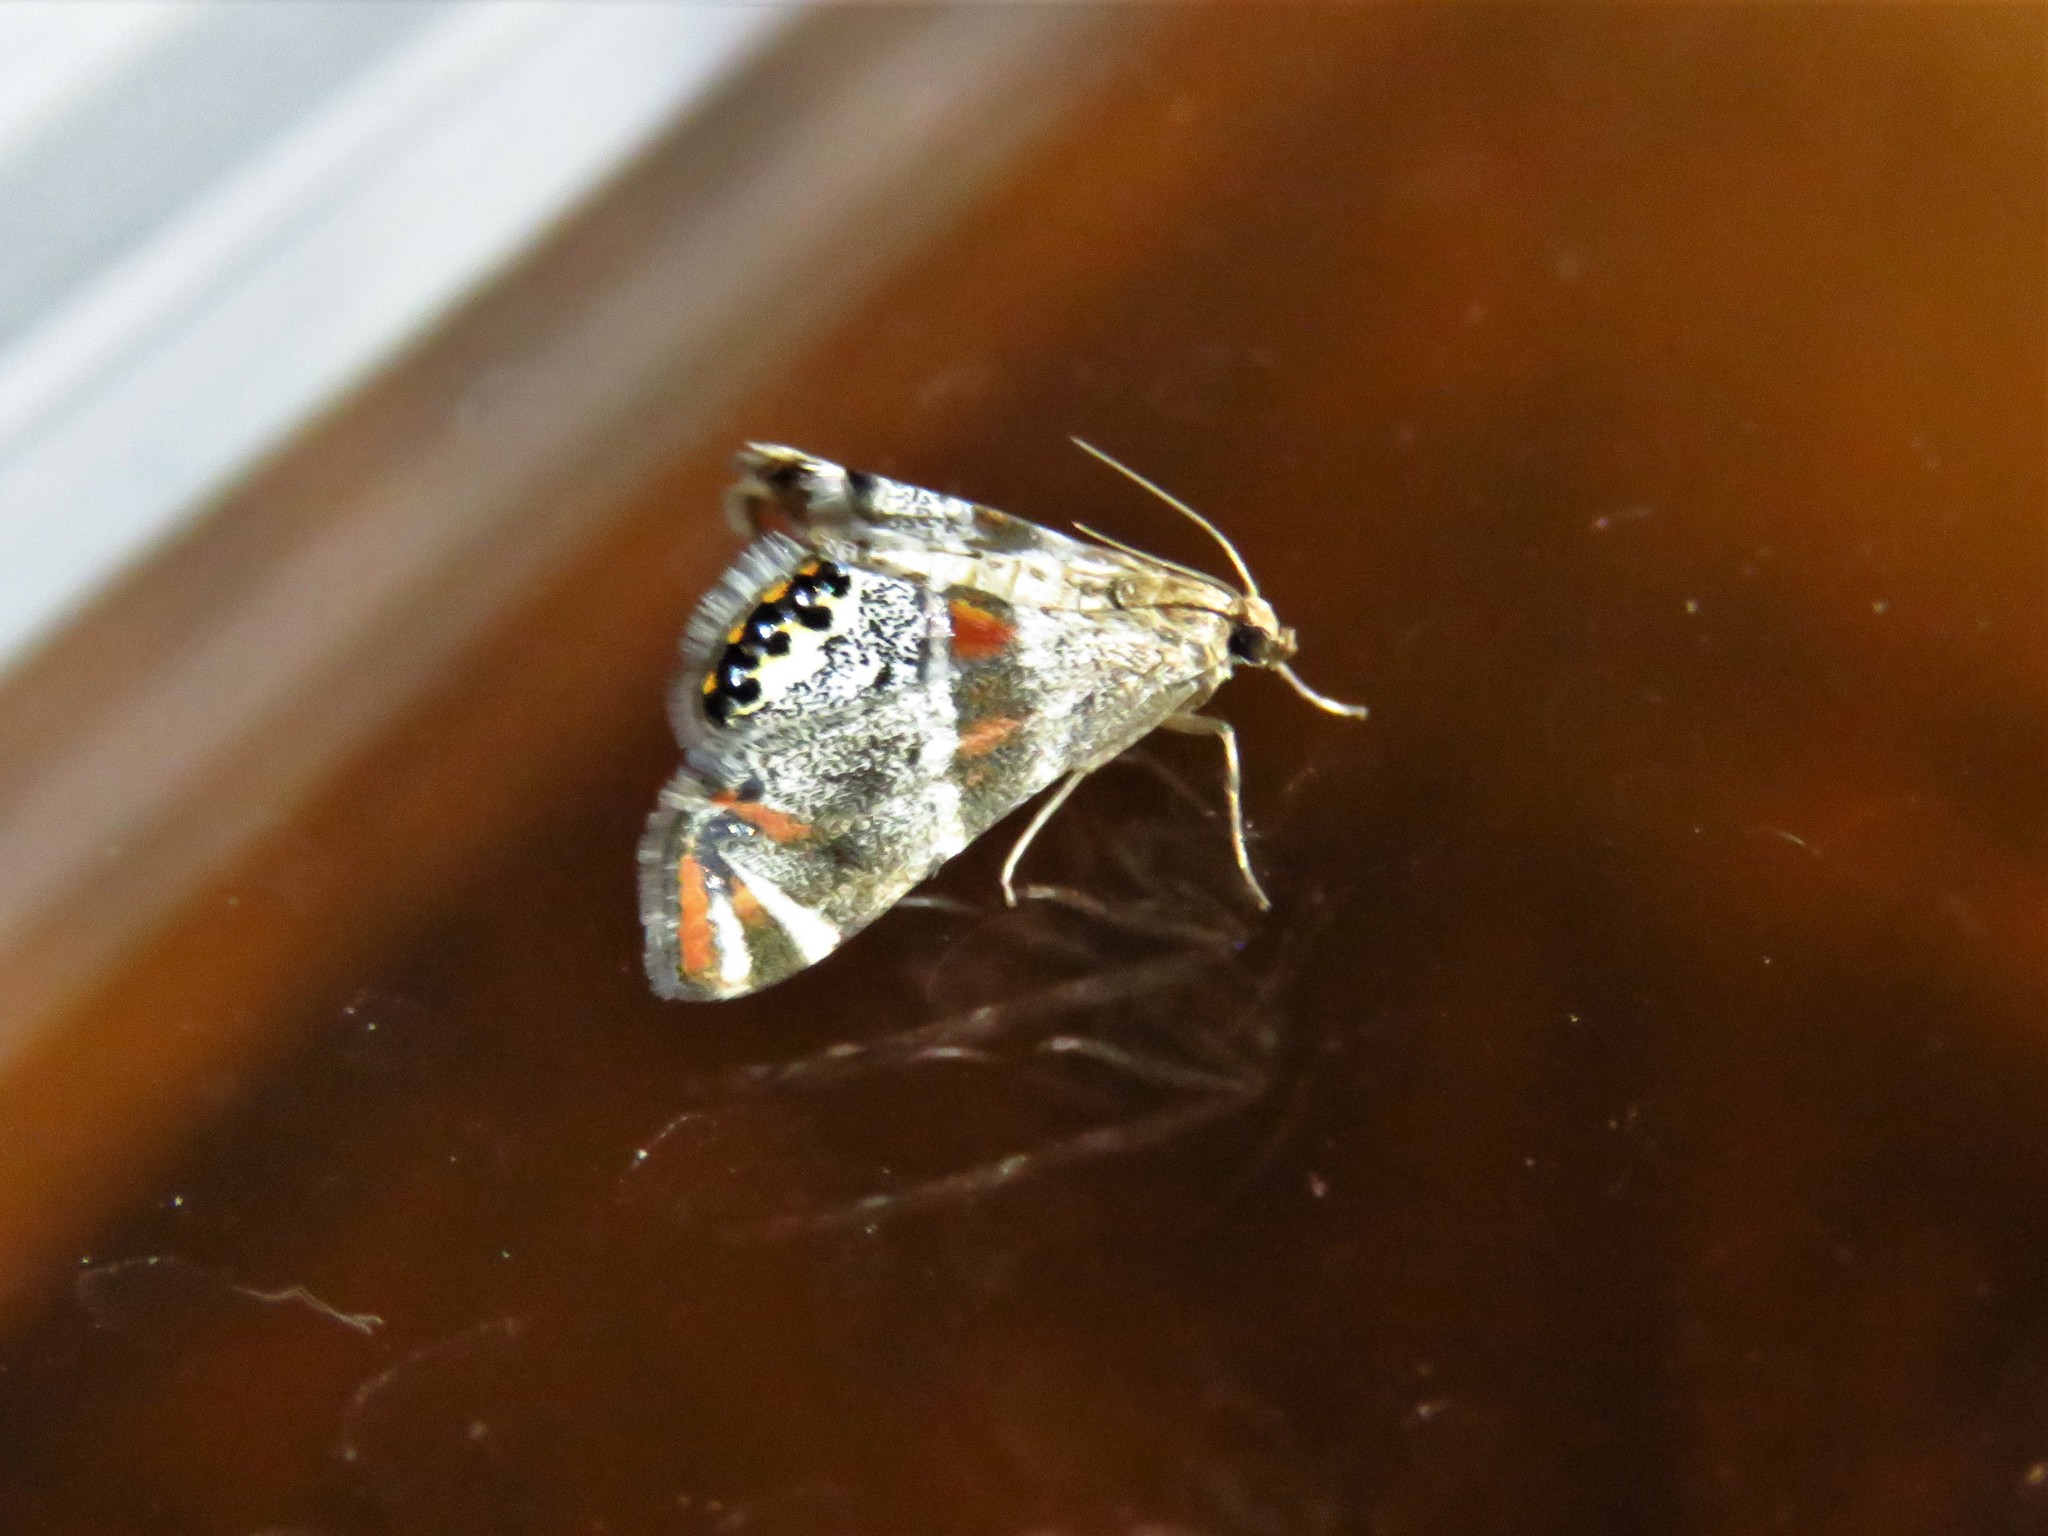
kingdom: Animalia
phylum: Arthropoda
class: Insecta
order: Lepidoptera
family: Crambidae
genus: Petrophila
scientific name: Petrophila jaliscalis
